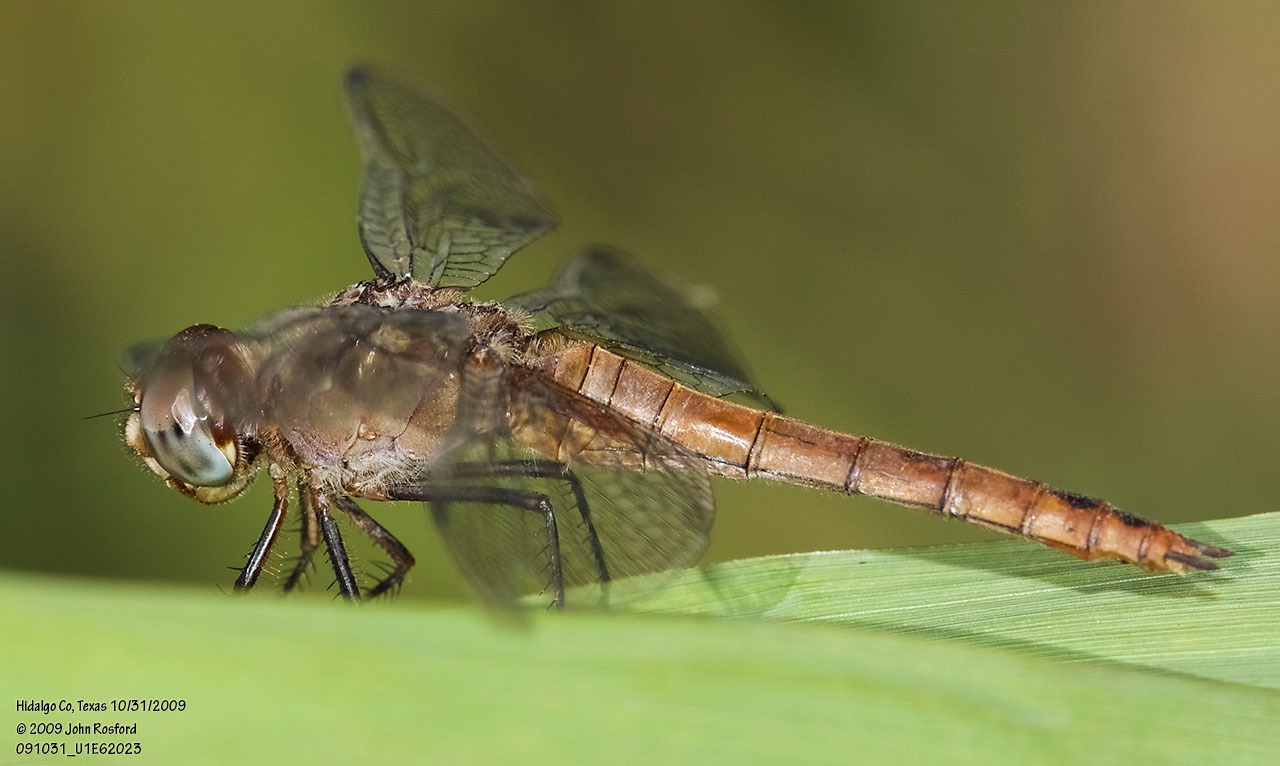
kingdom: Animalia
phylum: Arthropoda
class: Insecta
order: Odonata
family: Libellulidae
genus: Brachymesia
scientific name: Brachymesia furcata
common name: Red-taled pennant
